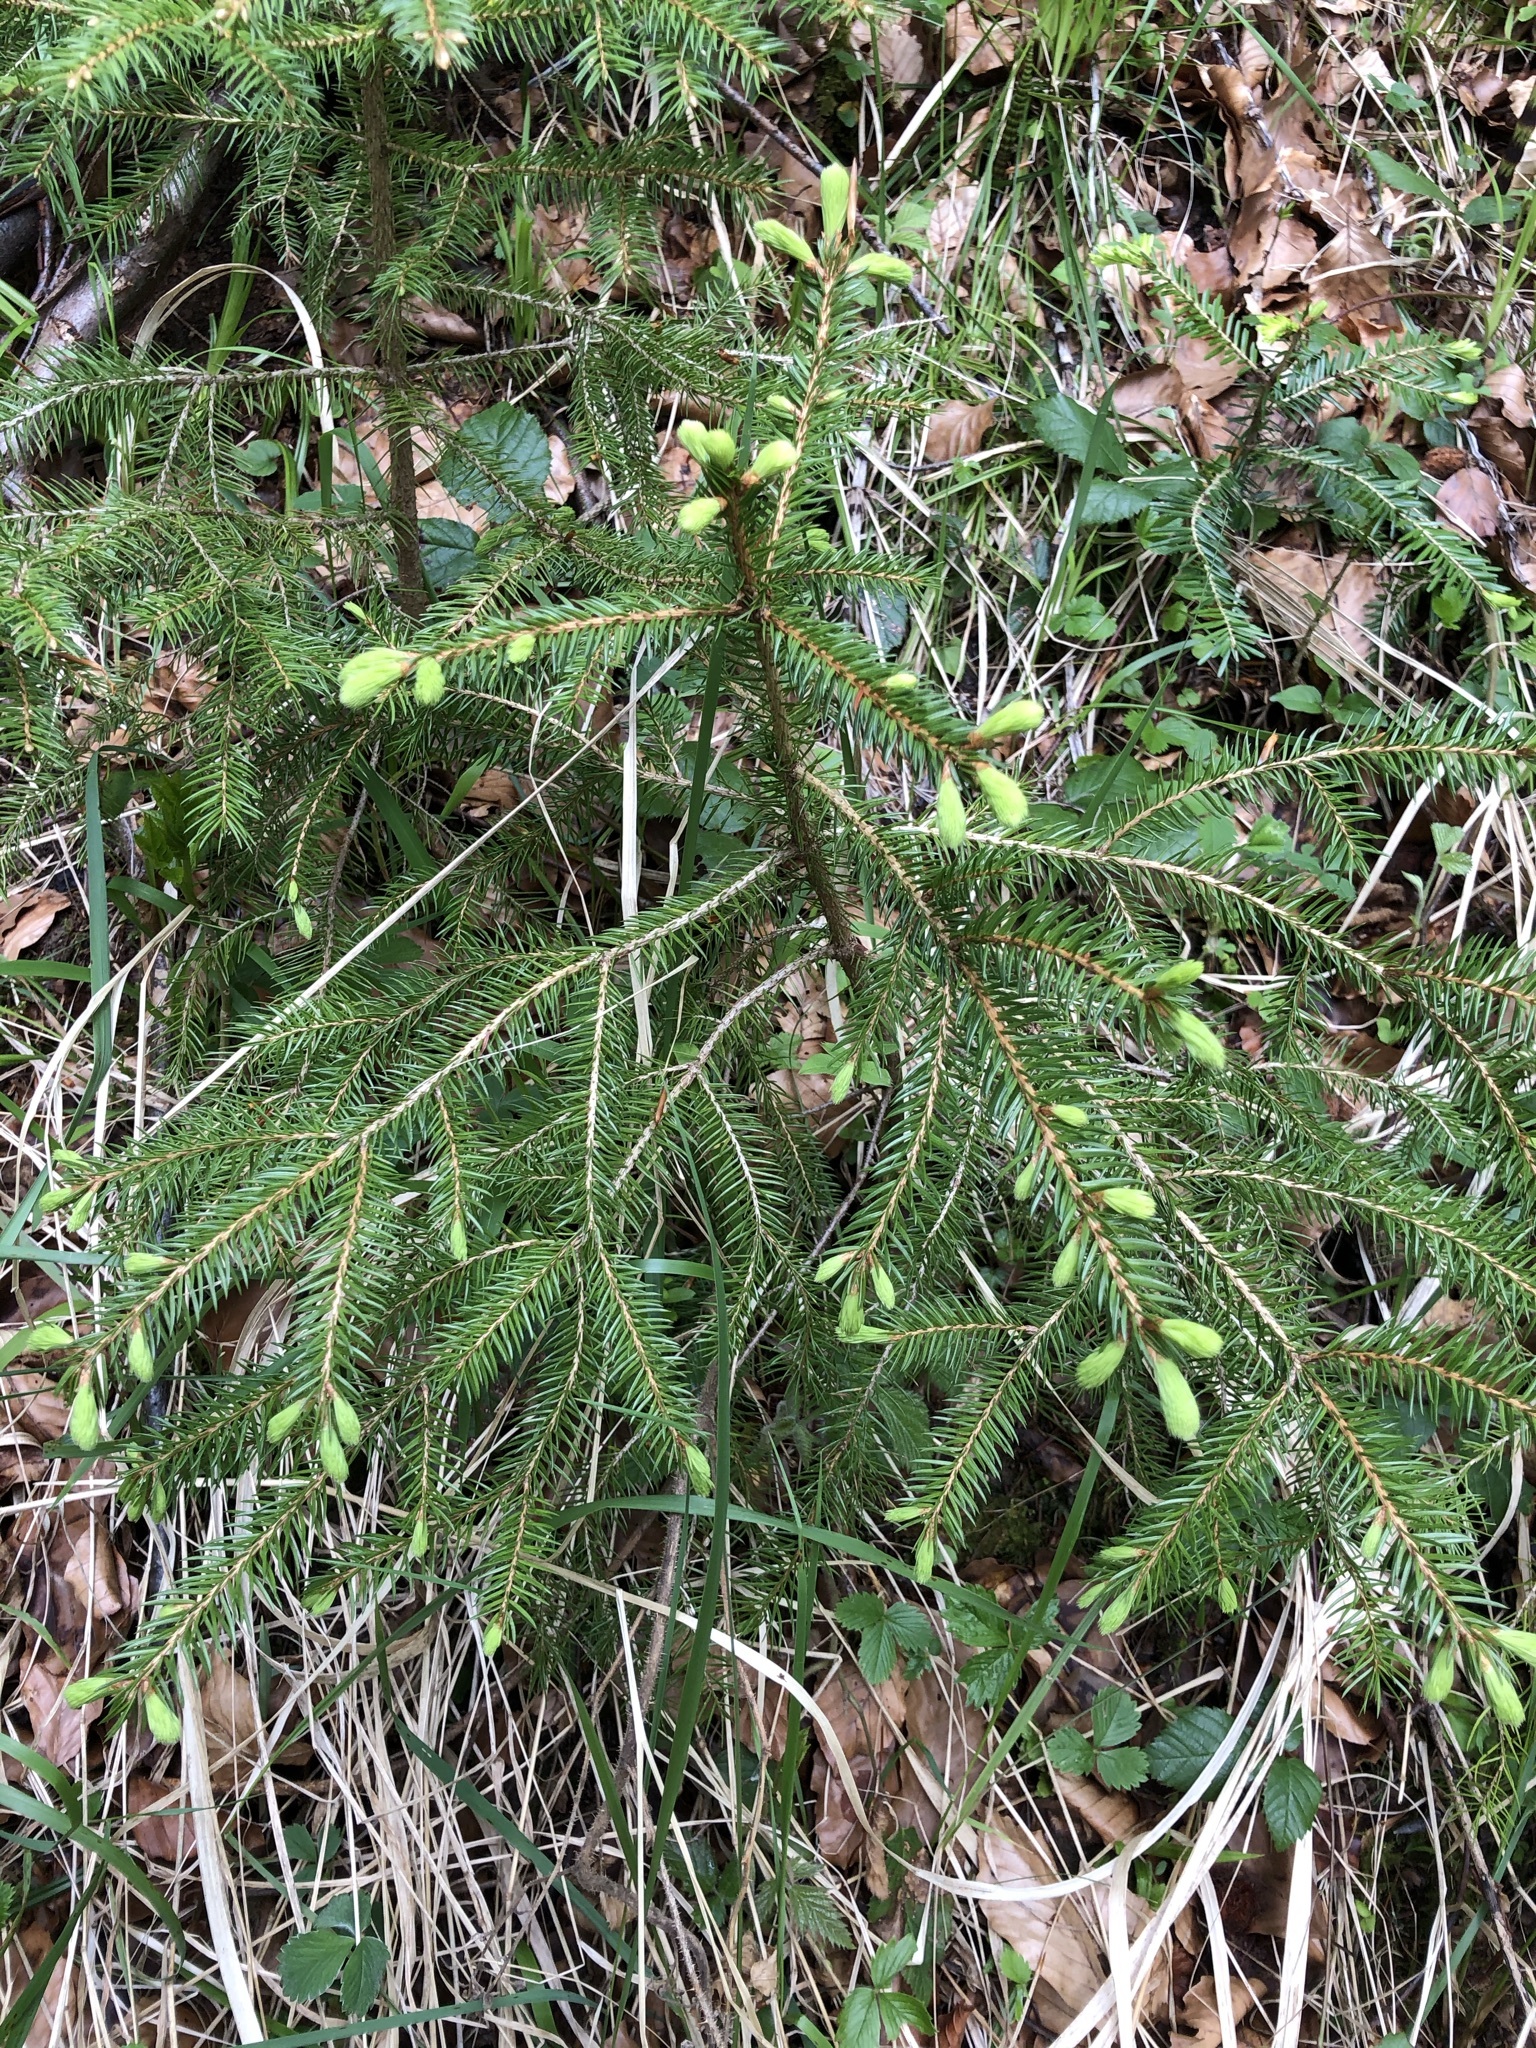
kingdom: Plantae
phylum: Tracheophyta
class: Pinopsida
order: Pinales
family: Pinaceae
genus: Picea
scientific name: Picea abies
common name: Norway spruce
